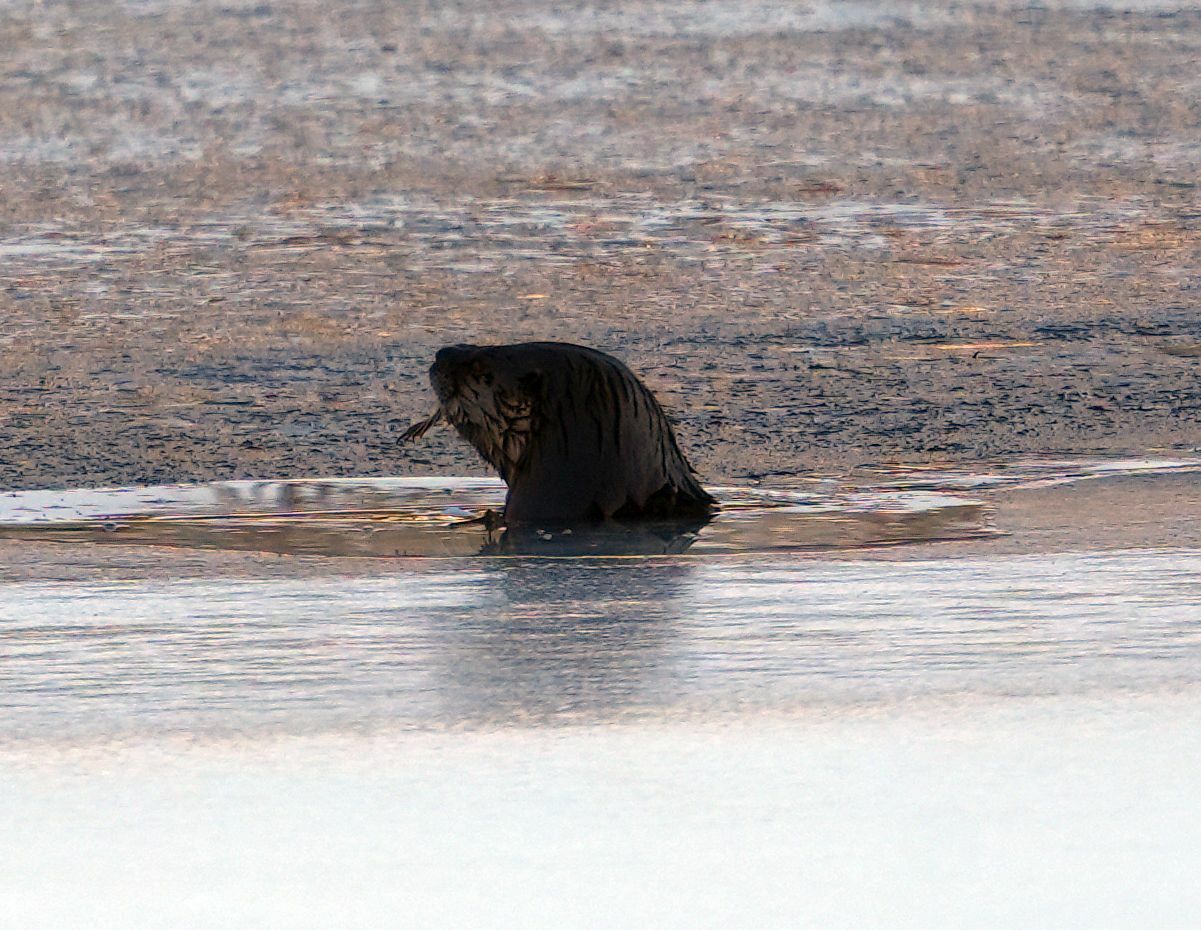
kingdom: Animalia
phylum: Chordata
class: Mammalia
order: Carnivora
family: Mustelidae
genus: Lontra
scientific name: Lontra canadensis
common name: North american river otter
